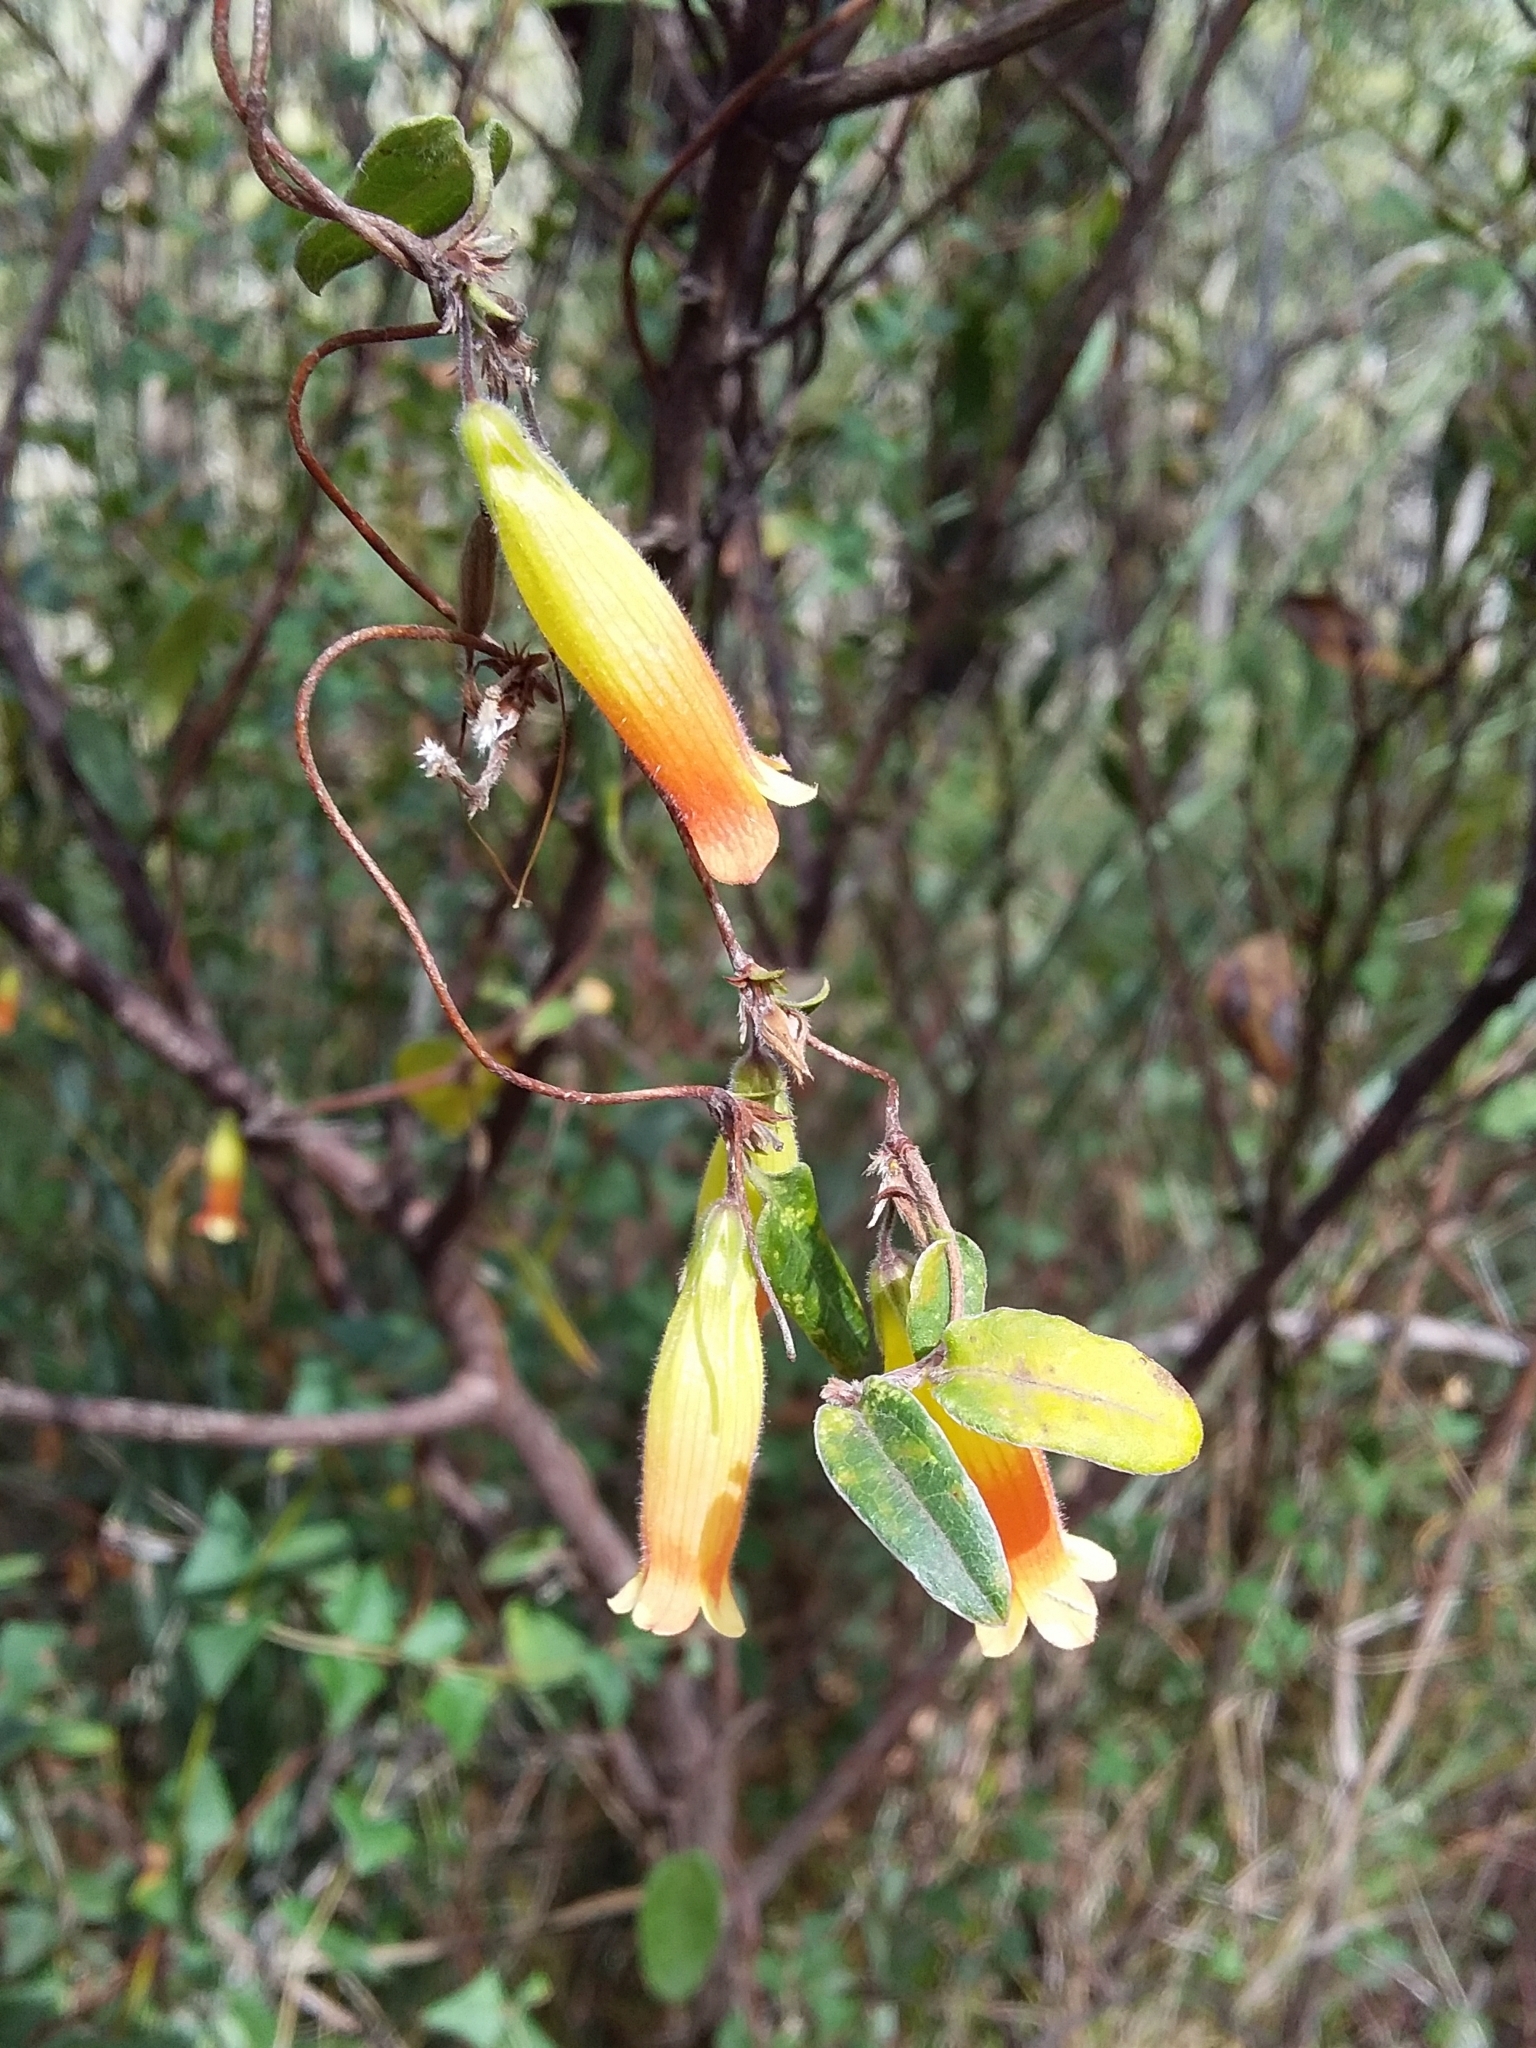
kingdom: Plantae
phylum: Tracheophyta
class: Magnoliopsida
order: Apiales
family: Pittosporaceae
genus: Marianthus
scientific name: Marianthus bignoniaceus
